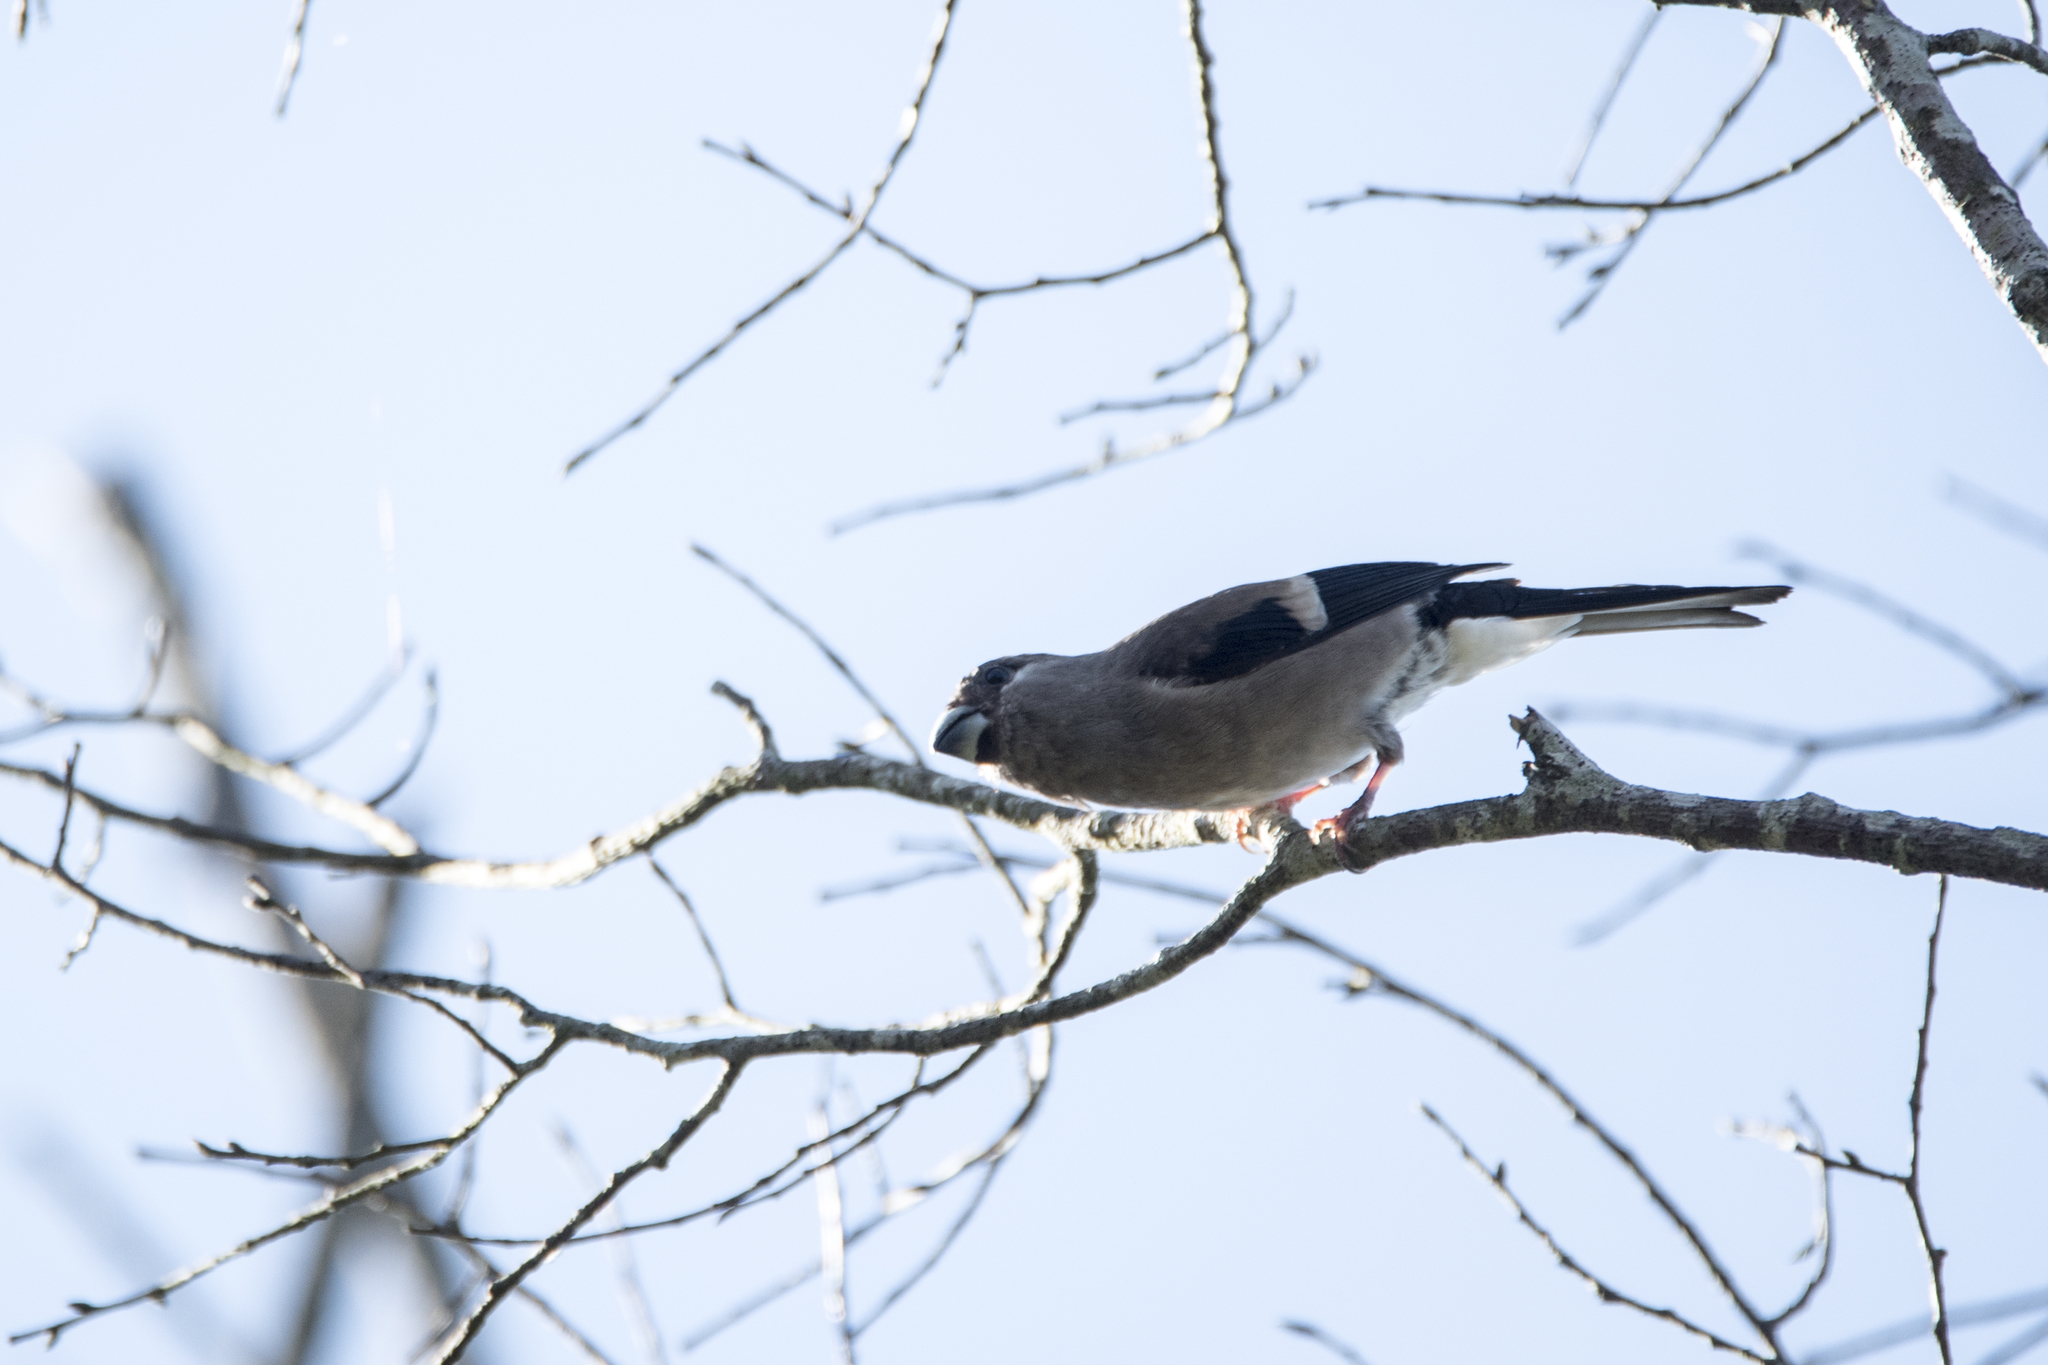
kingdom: Animalia
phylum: Chordata
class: Aves
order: Passeriformes
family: Fringillidae
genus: Pyrrhula
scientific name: Pyrrhula nipalensis
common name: Brown bullfinch
